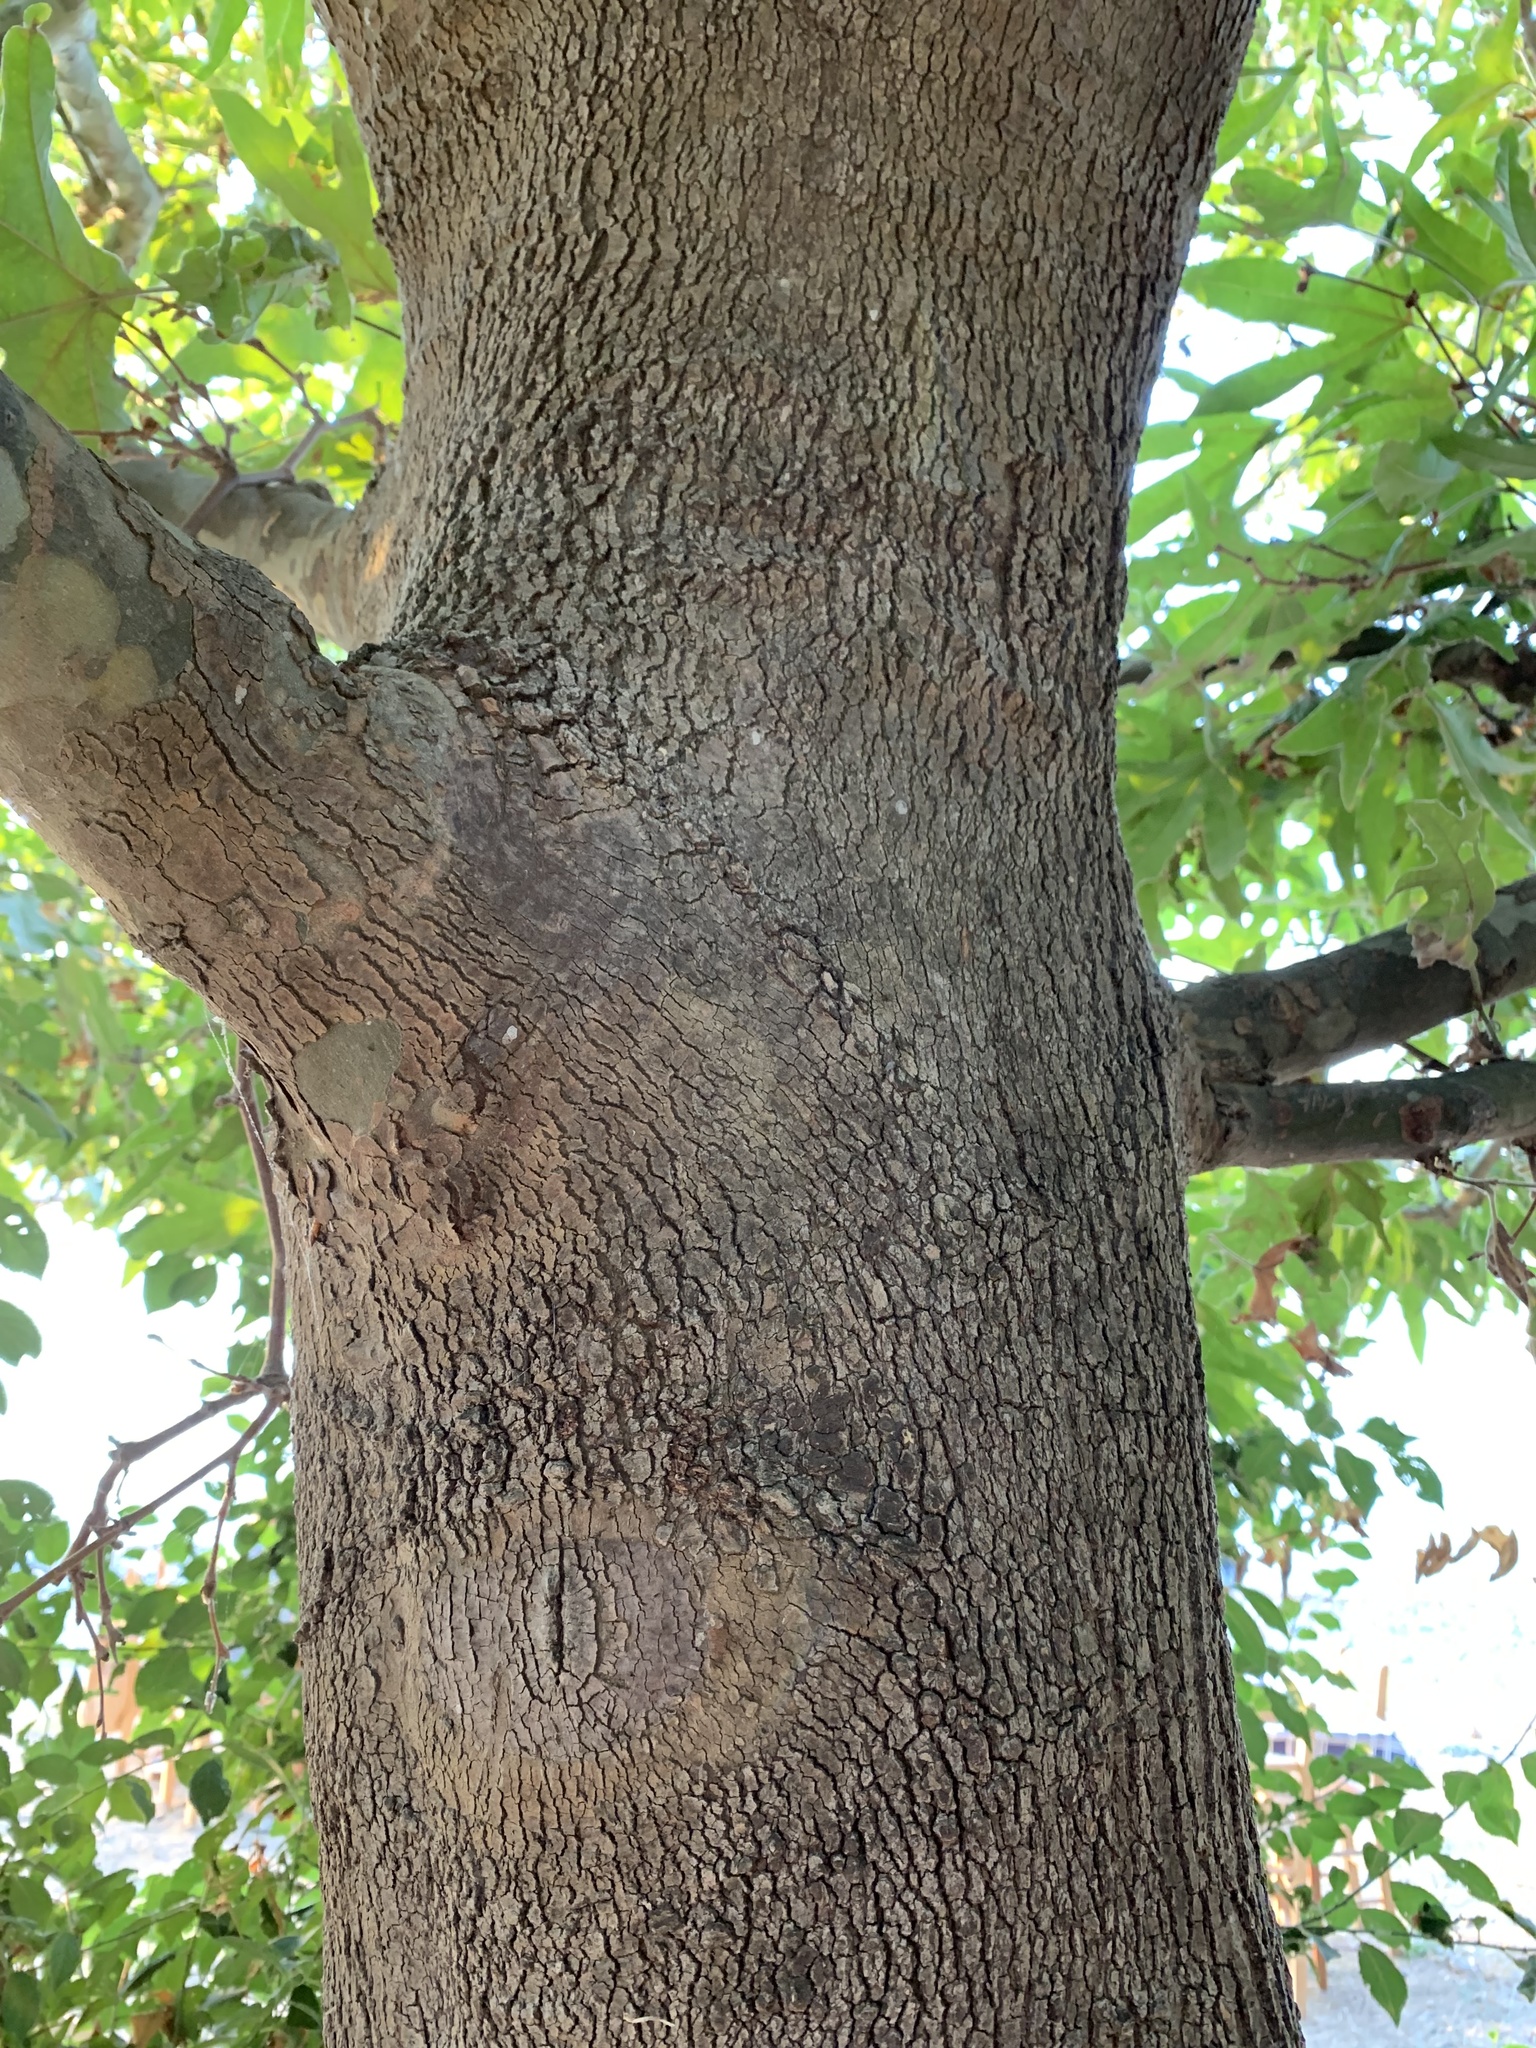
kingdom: Plantae
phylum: Tracheophyta
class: Magnoliopsida
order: Proteales
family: Platanaceae
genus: Platanus
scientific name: Platanus orientalis
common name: Oriental plane
